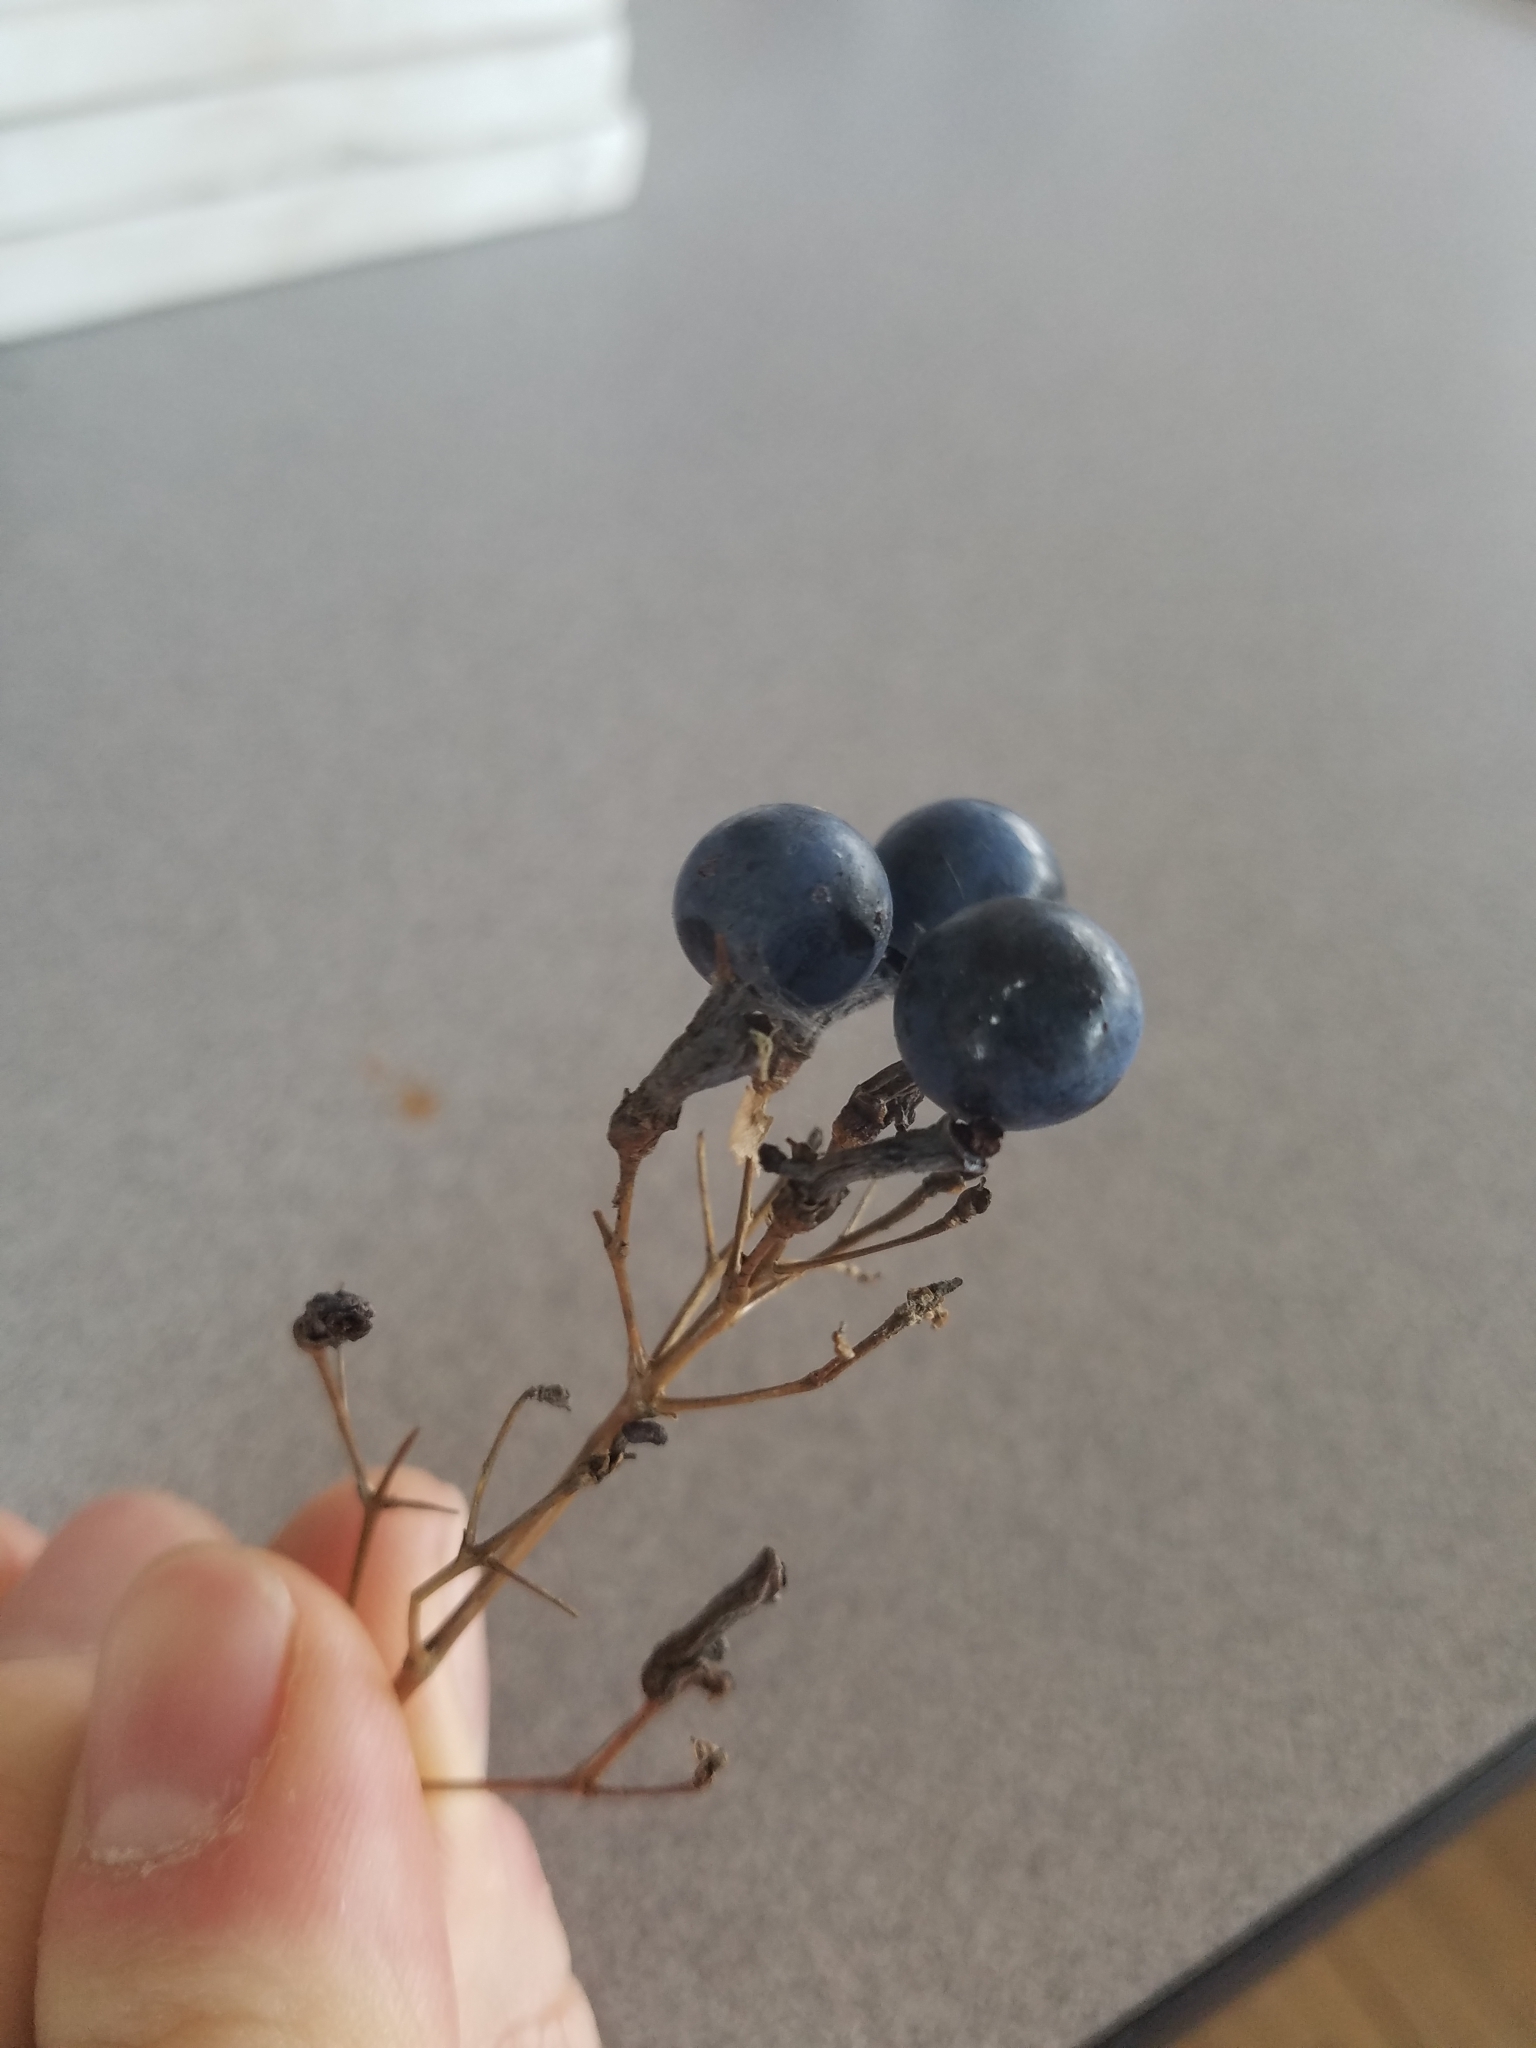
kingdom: Plantae
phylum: Tracheophyta
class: Magnoliopsida
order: Ranunculales
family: Berberidaceae
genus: Caulophyllum
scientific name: Caulophyllum thalictroides
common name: Blue cohosh
